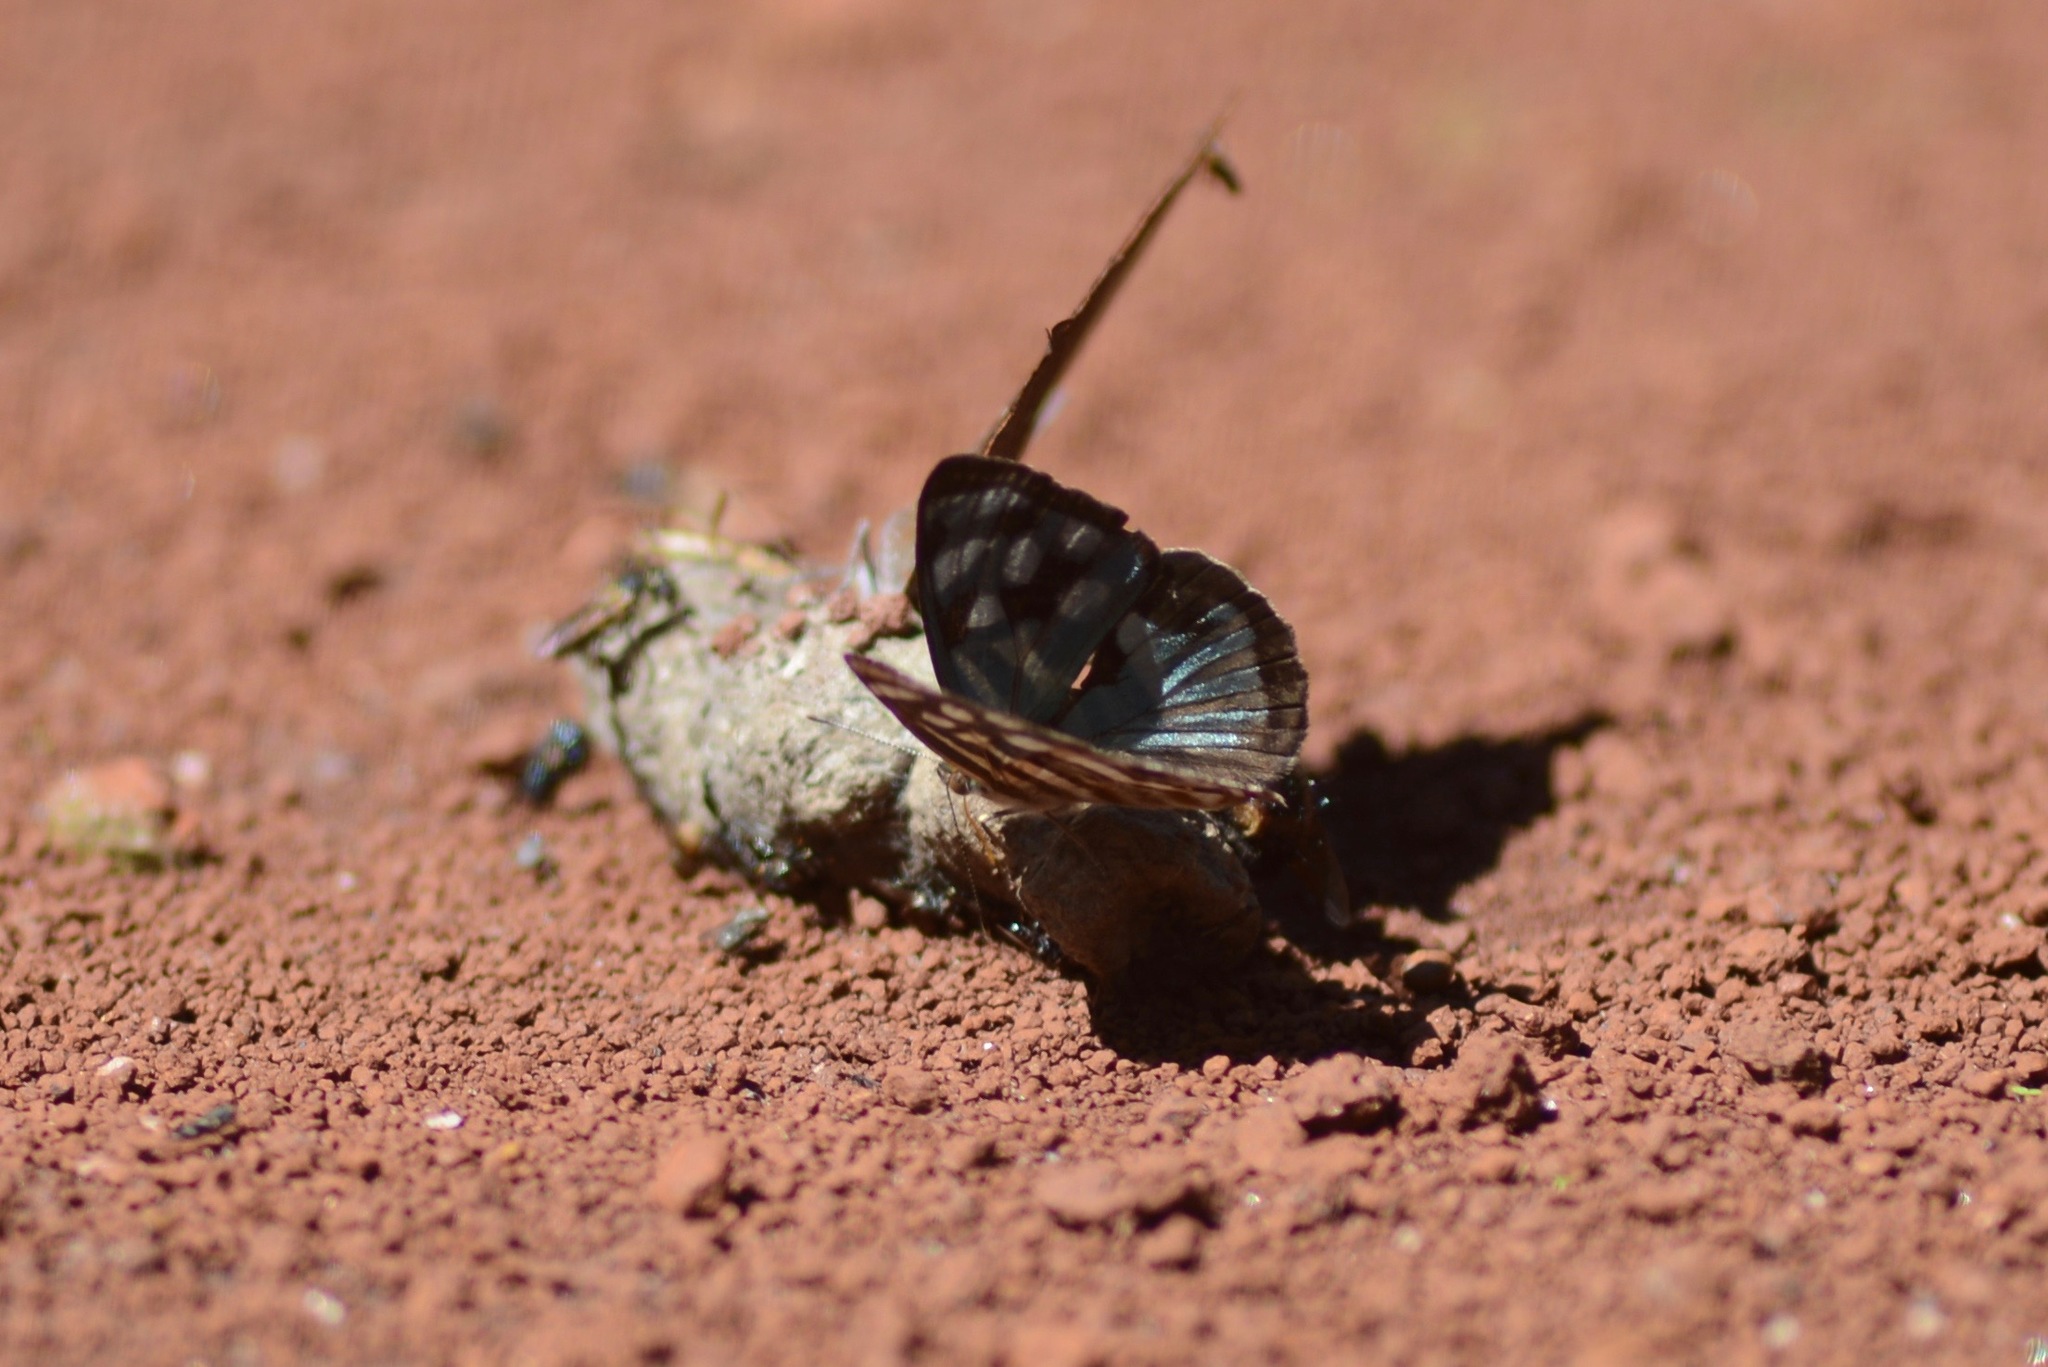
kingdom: Animalia
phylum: Arthropoda
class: Insecta
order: Lepidoptera
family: Nymphalidae
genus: Dynamine
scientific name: Dynamine mylitta
